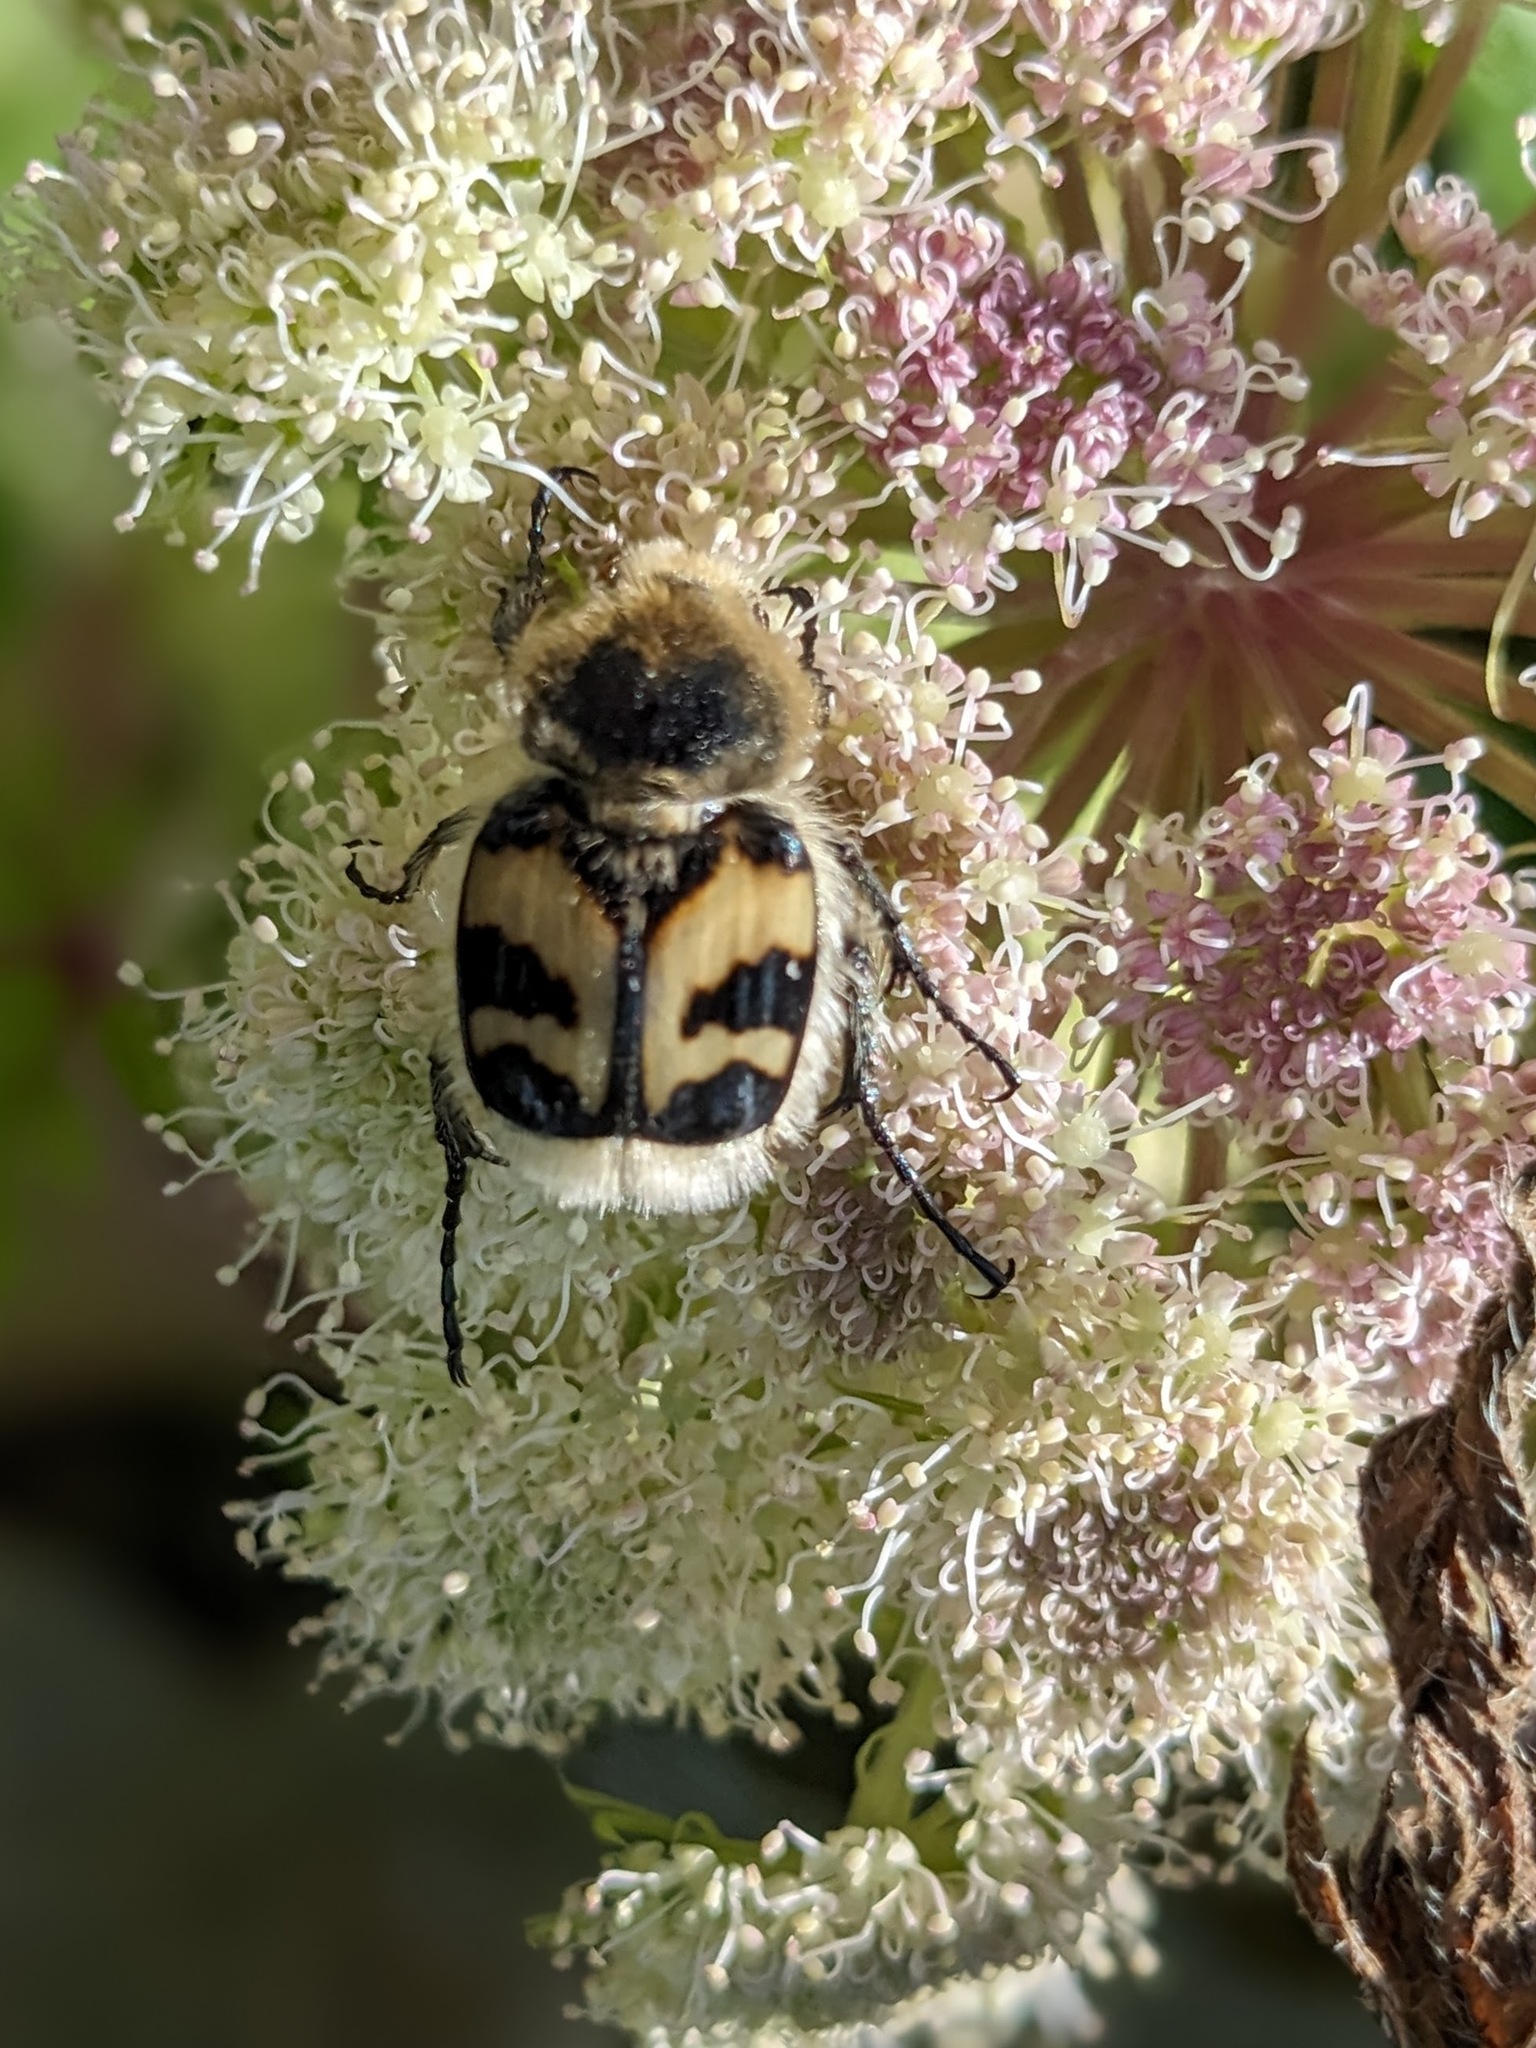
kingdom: Animalia
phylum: Arthropoda
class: Insecta
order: Coleoptera
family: Scarabaeidae
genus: Trichius
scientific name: Trichius fasciatus
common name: Bee beetle
